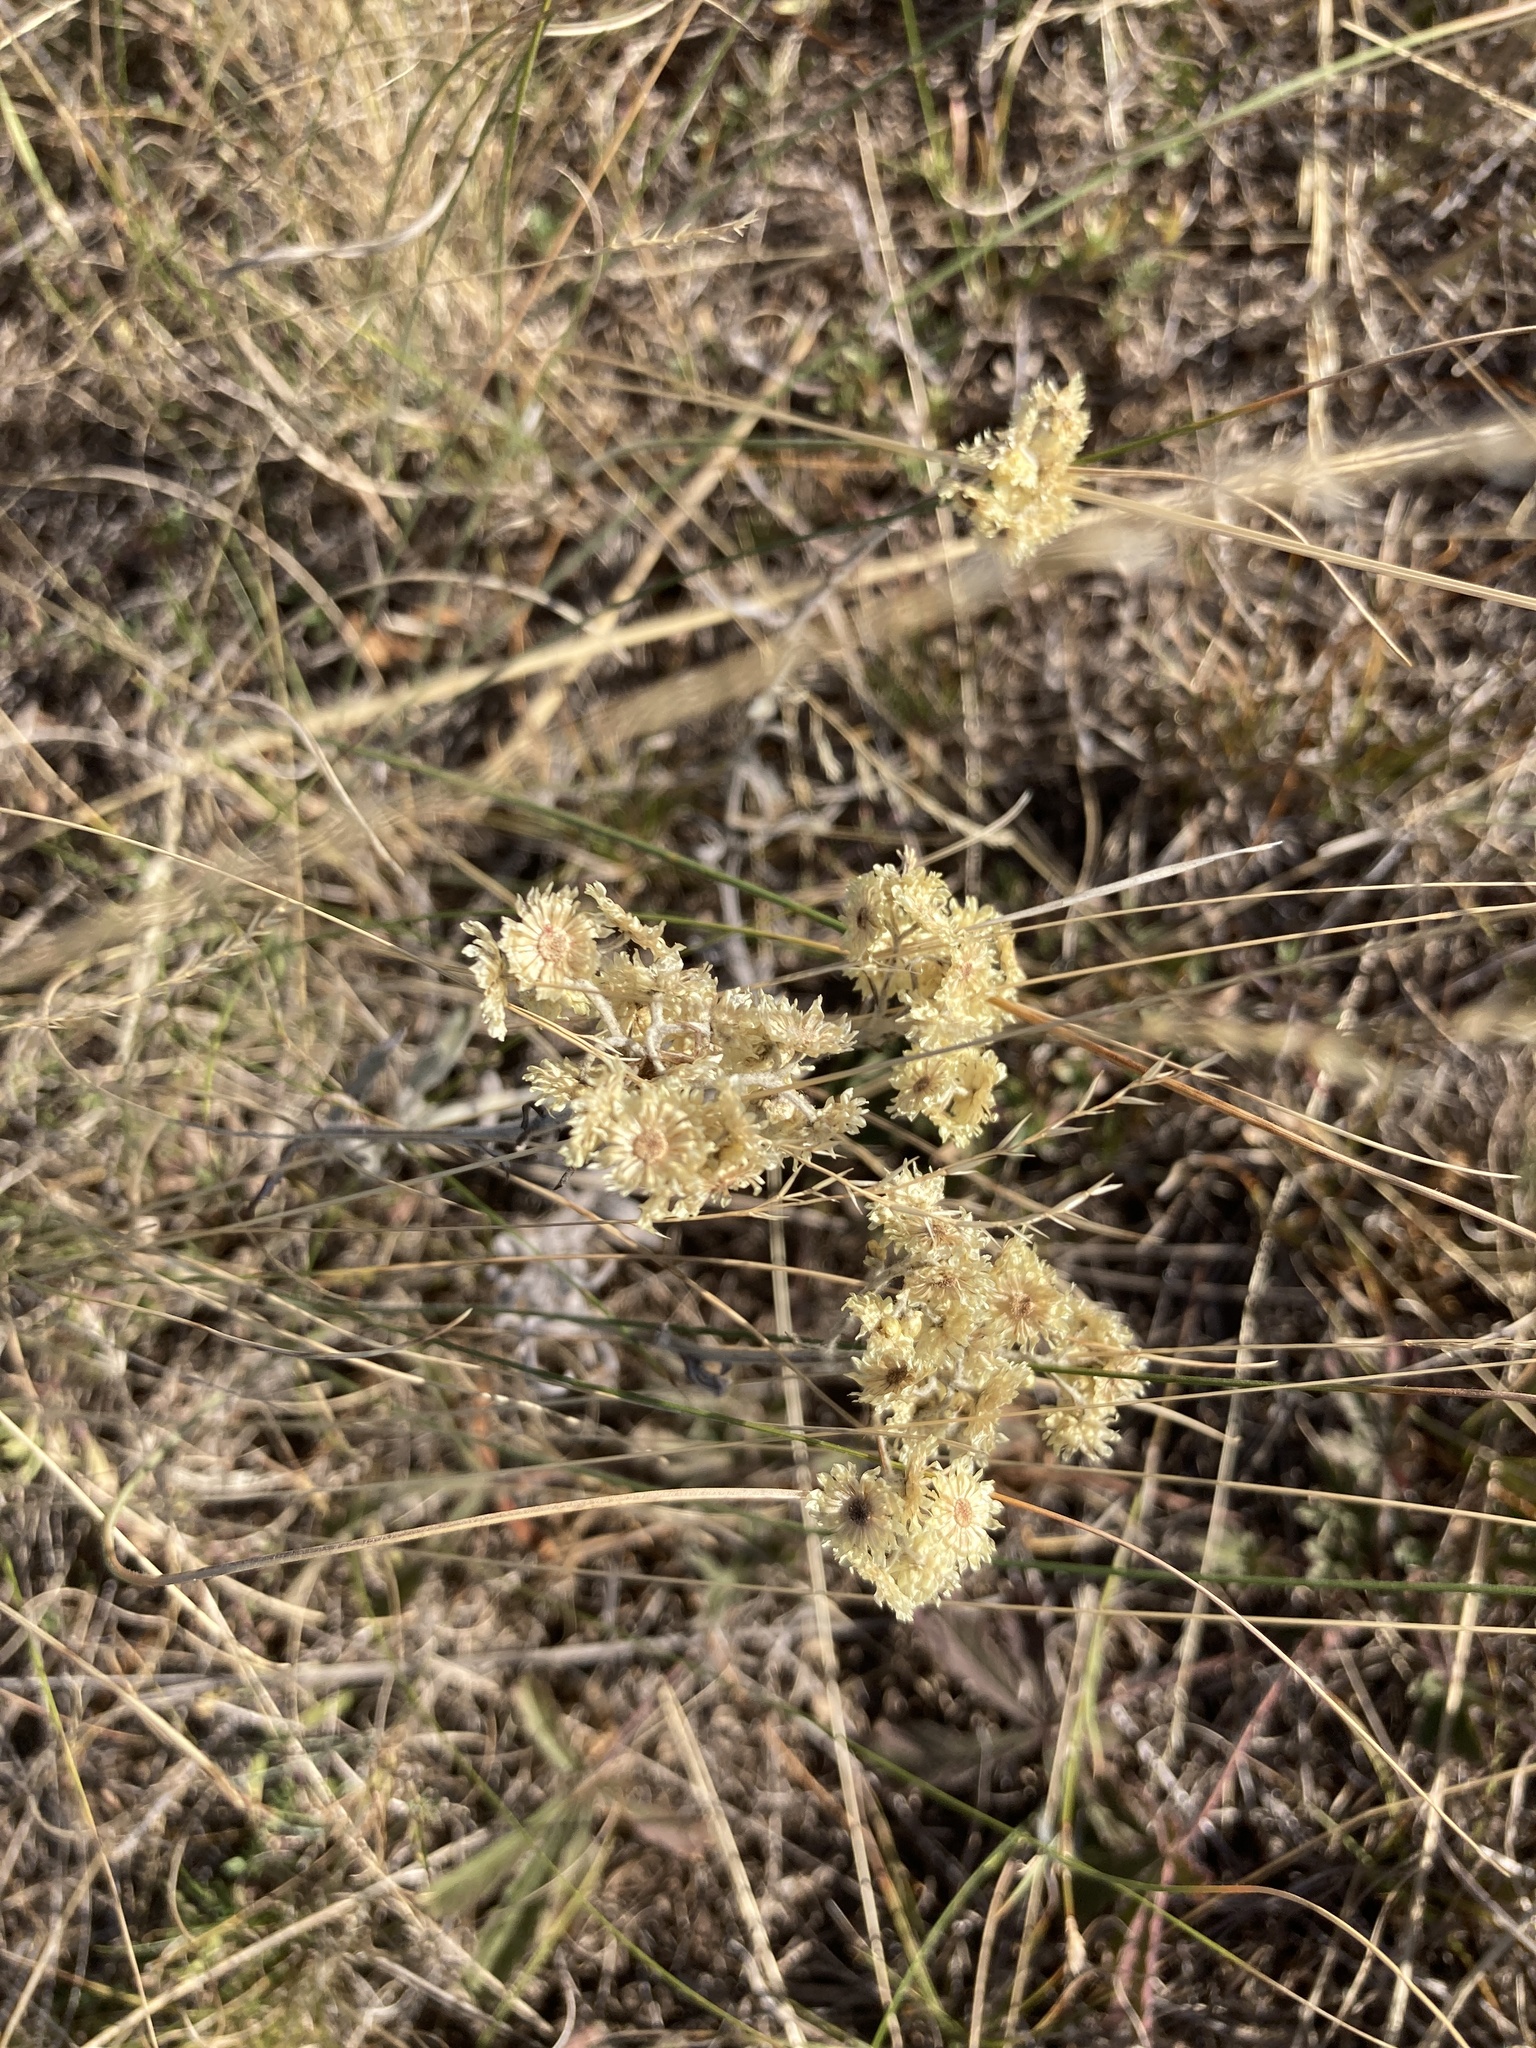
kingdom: Plantae
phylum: Tracheophyta
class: Magnoliopsida
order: Asterales
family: Asteraceae
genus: Helichrysum
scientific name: Helichrysum arenarium
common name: Strawflower
